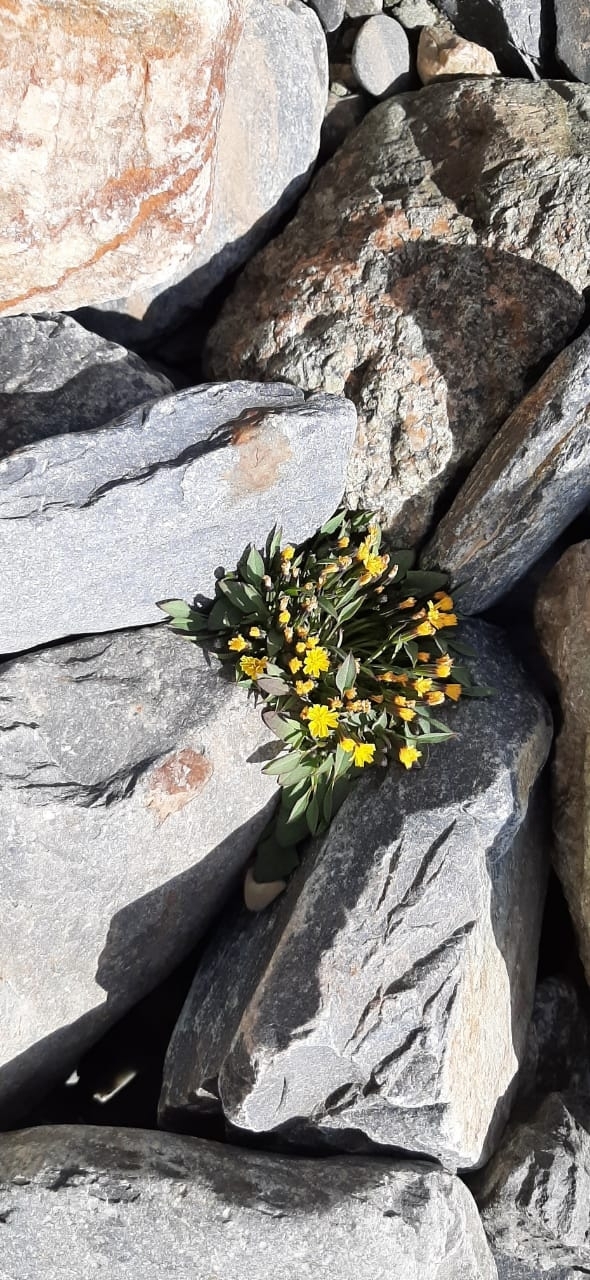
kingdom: Plantae
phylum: Tracheophyta
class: Magnoliopsida
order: Asterales
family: Asteraceae
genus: Askellia
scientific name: Askellia pygmaea
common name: Dwarf alpine hawksbeard
